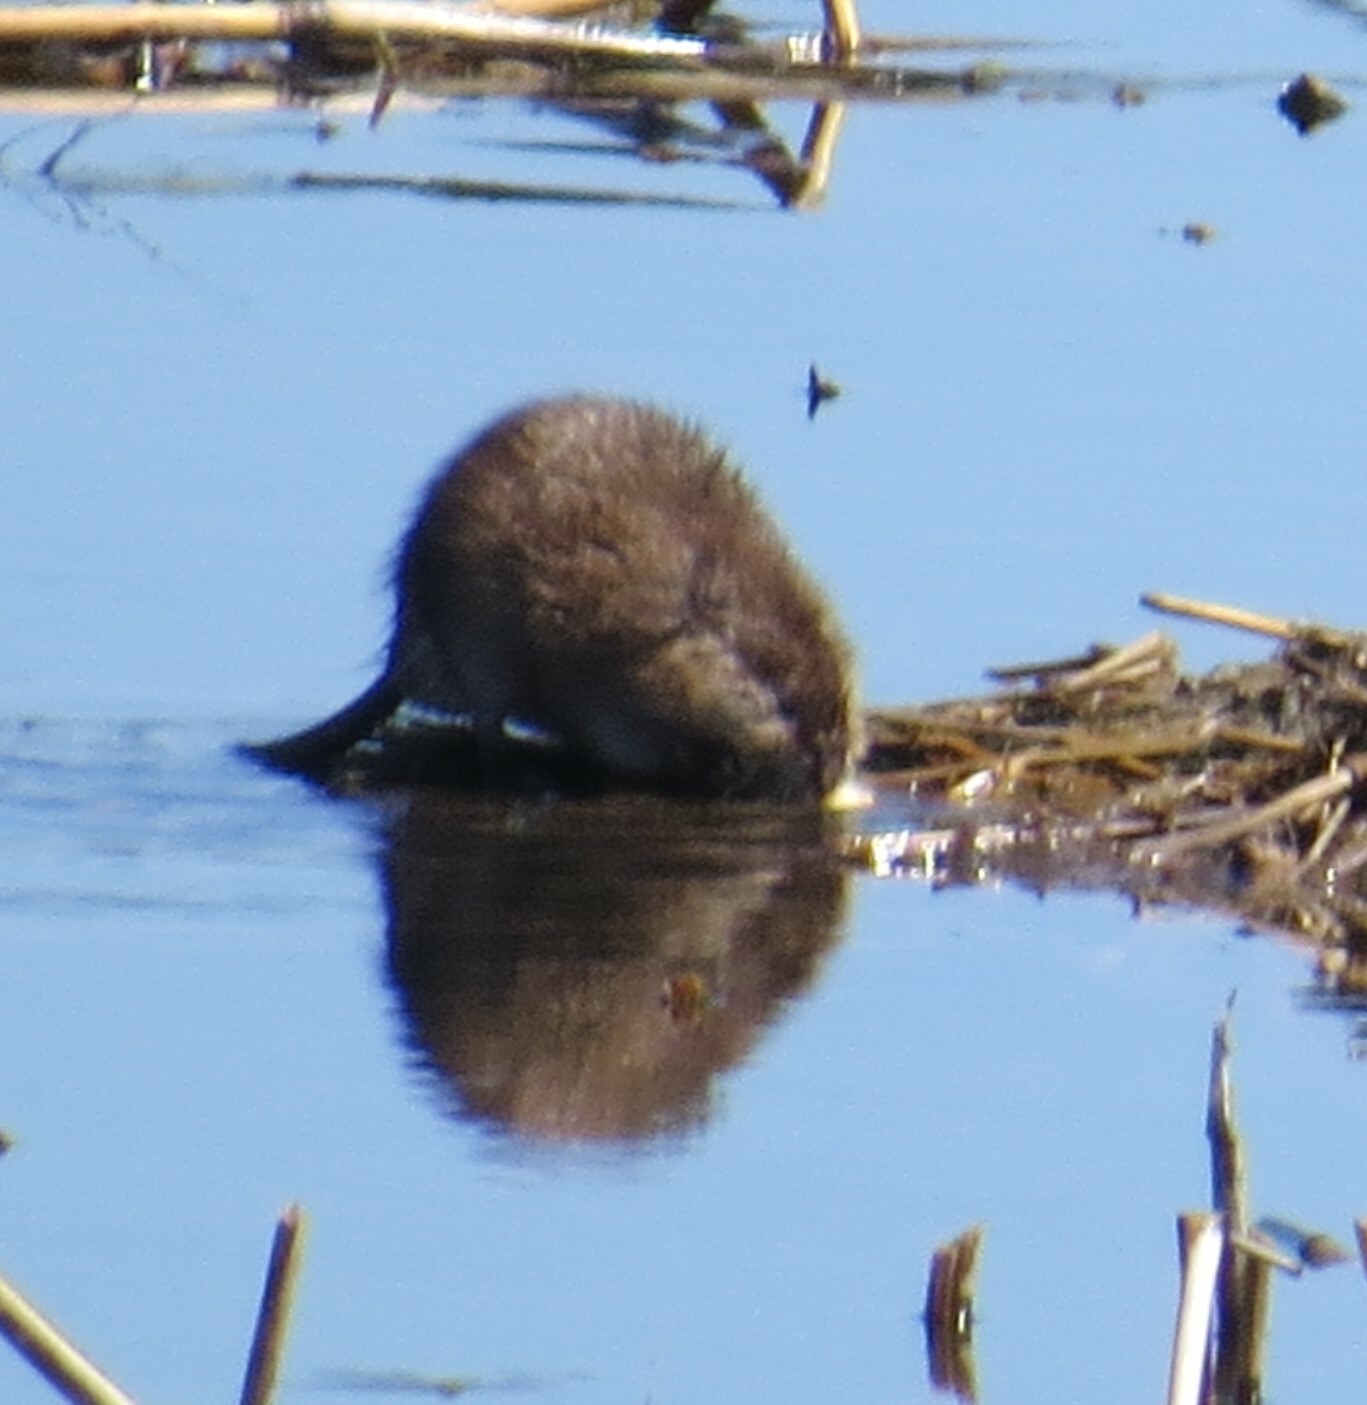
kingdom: Animalia
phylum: Chordata
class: Mammalia
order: Rodentia
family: Cricetidae
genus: Ondatra
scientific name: Ondatra zibethicus
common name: Muskrat
